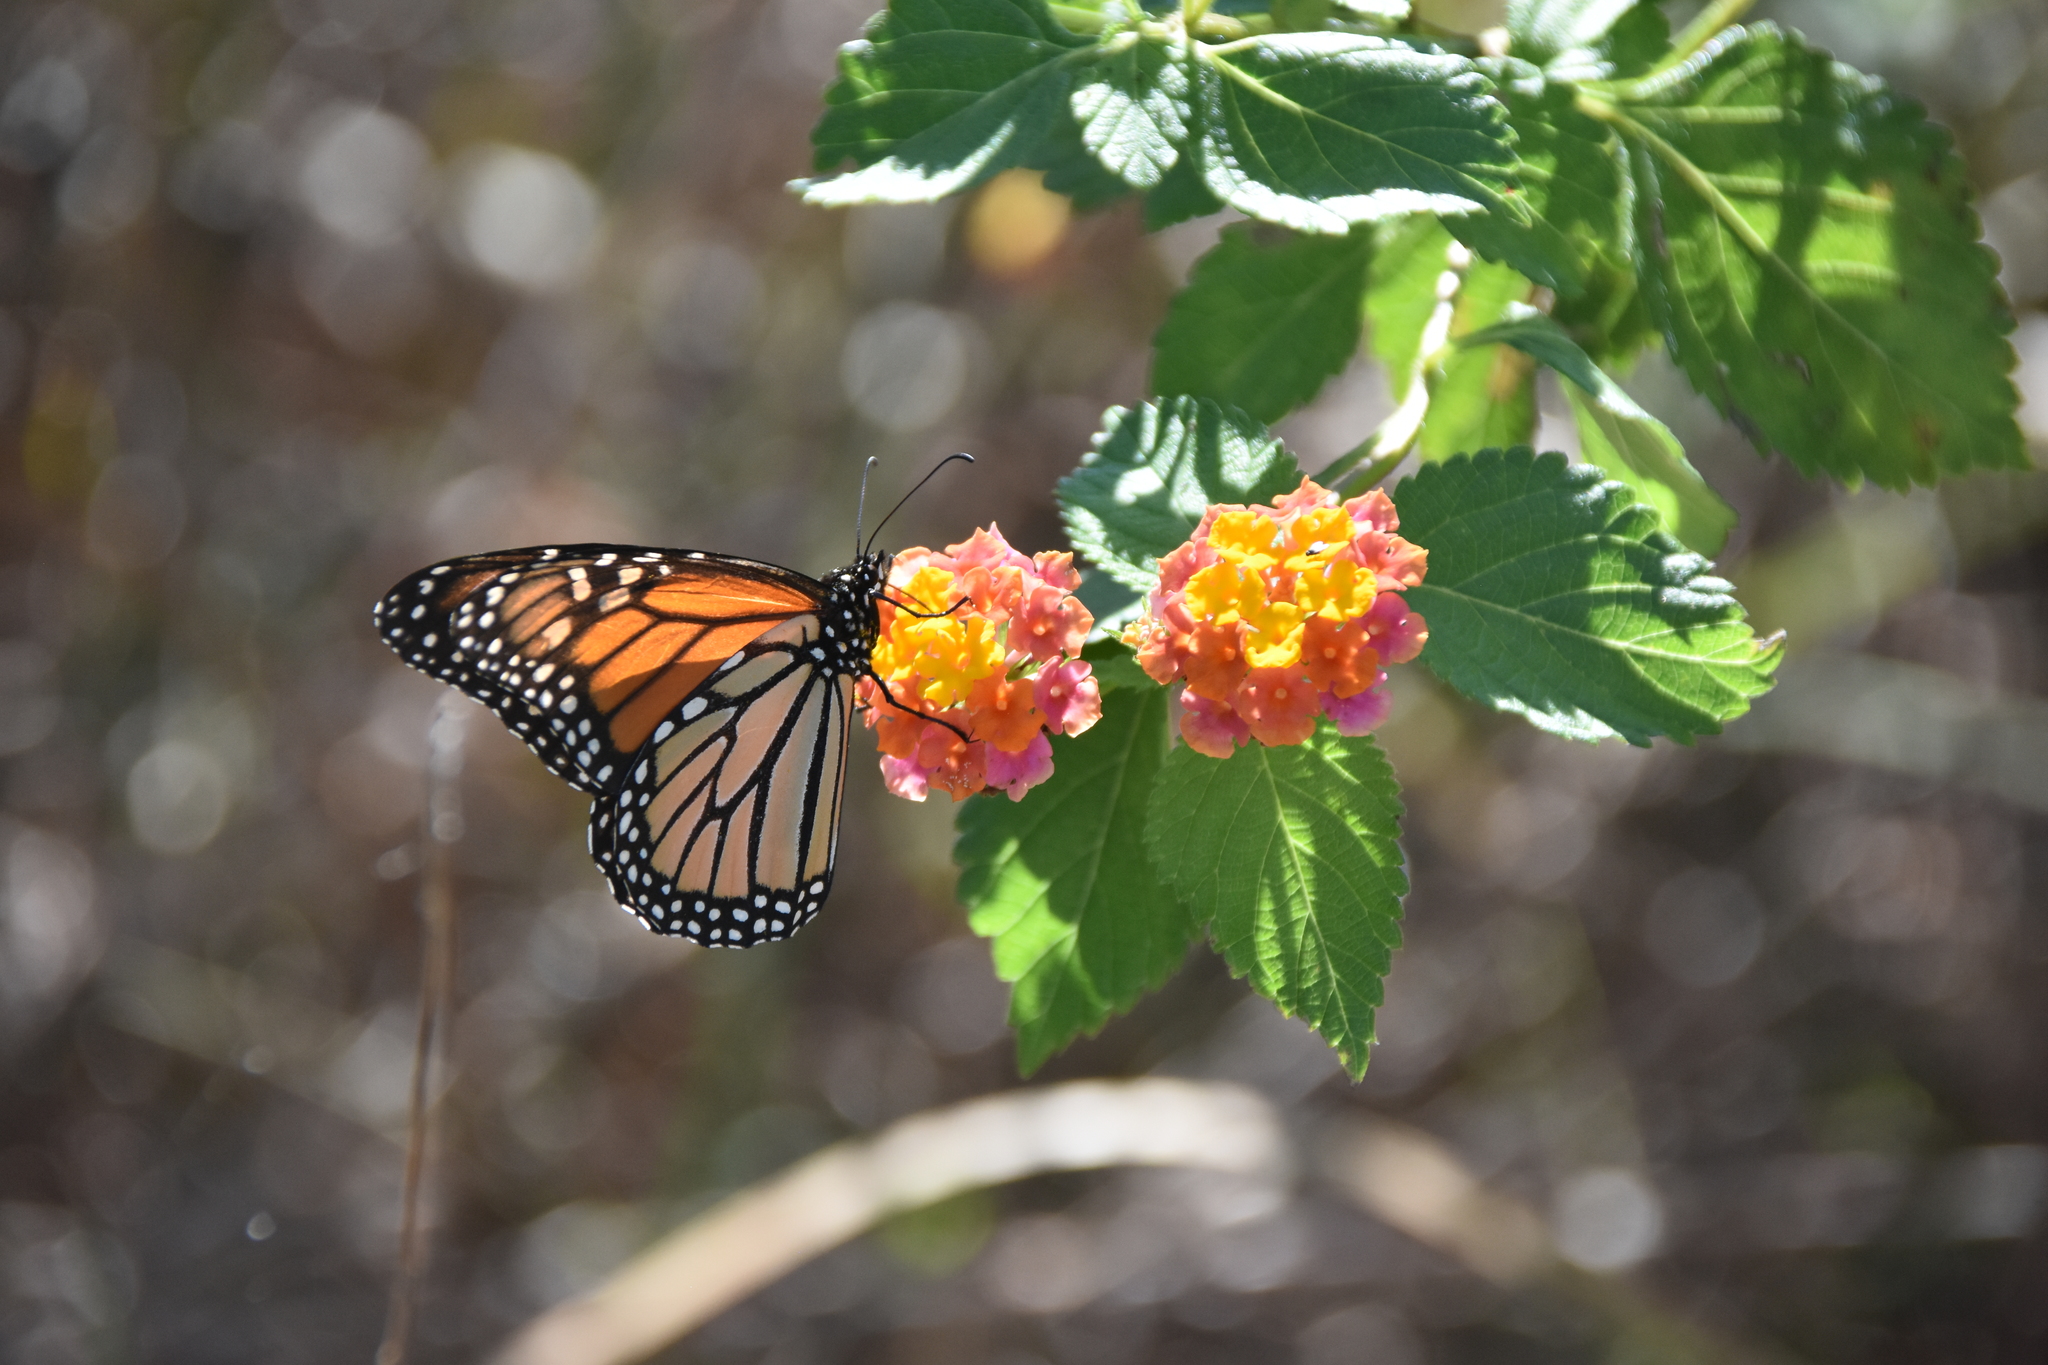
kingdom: Animalia
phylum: Arthropoda
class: Insecta
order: Lepidoptera
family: Nymphalidae
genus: Danaus
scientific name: Danaus plexippus
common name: Monarch
